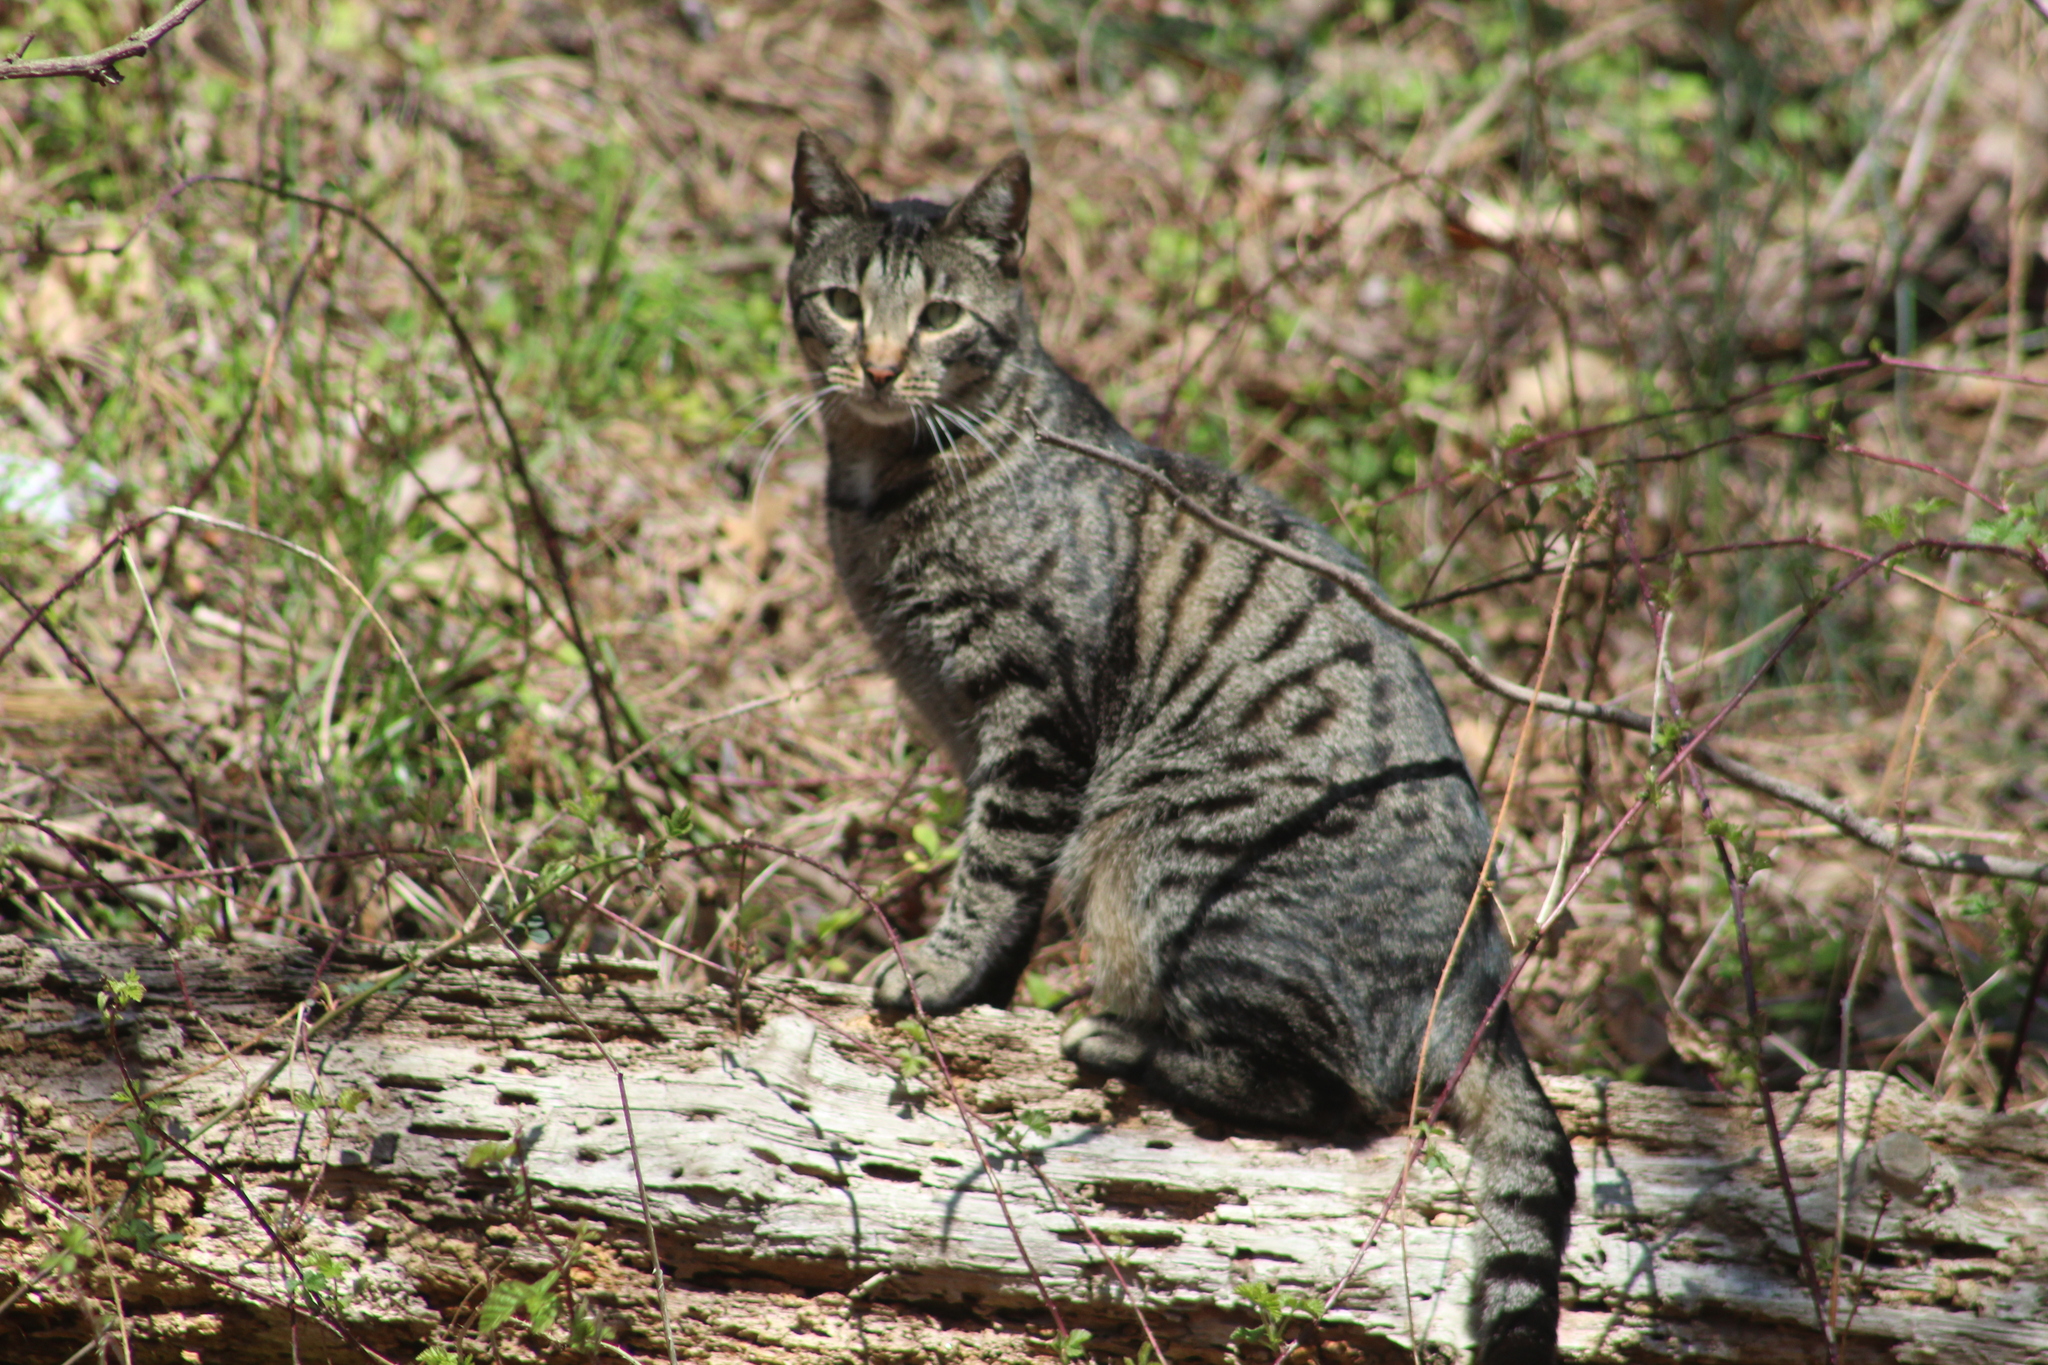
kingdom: Animalia
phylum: Chordata
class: Mammalia
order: Carnivora
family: Felidae
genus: Felis
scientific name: Felis catus
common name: Domestic cat
